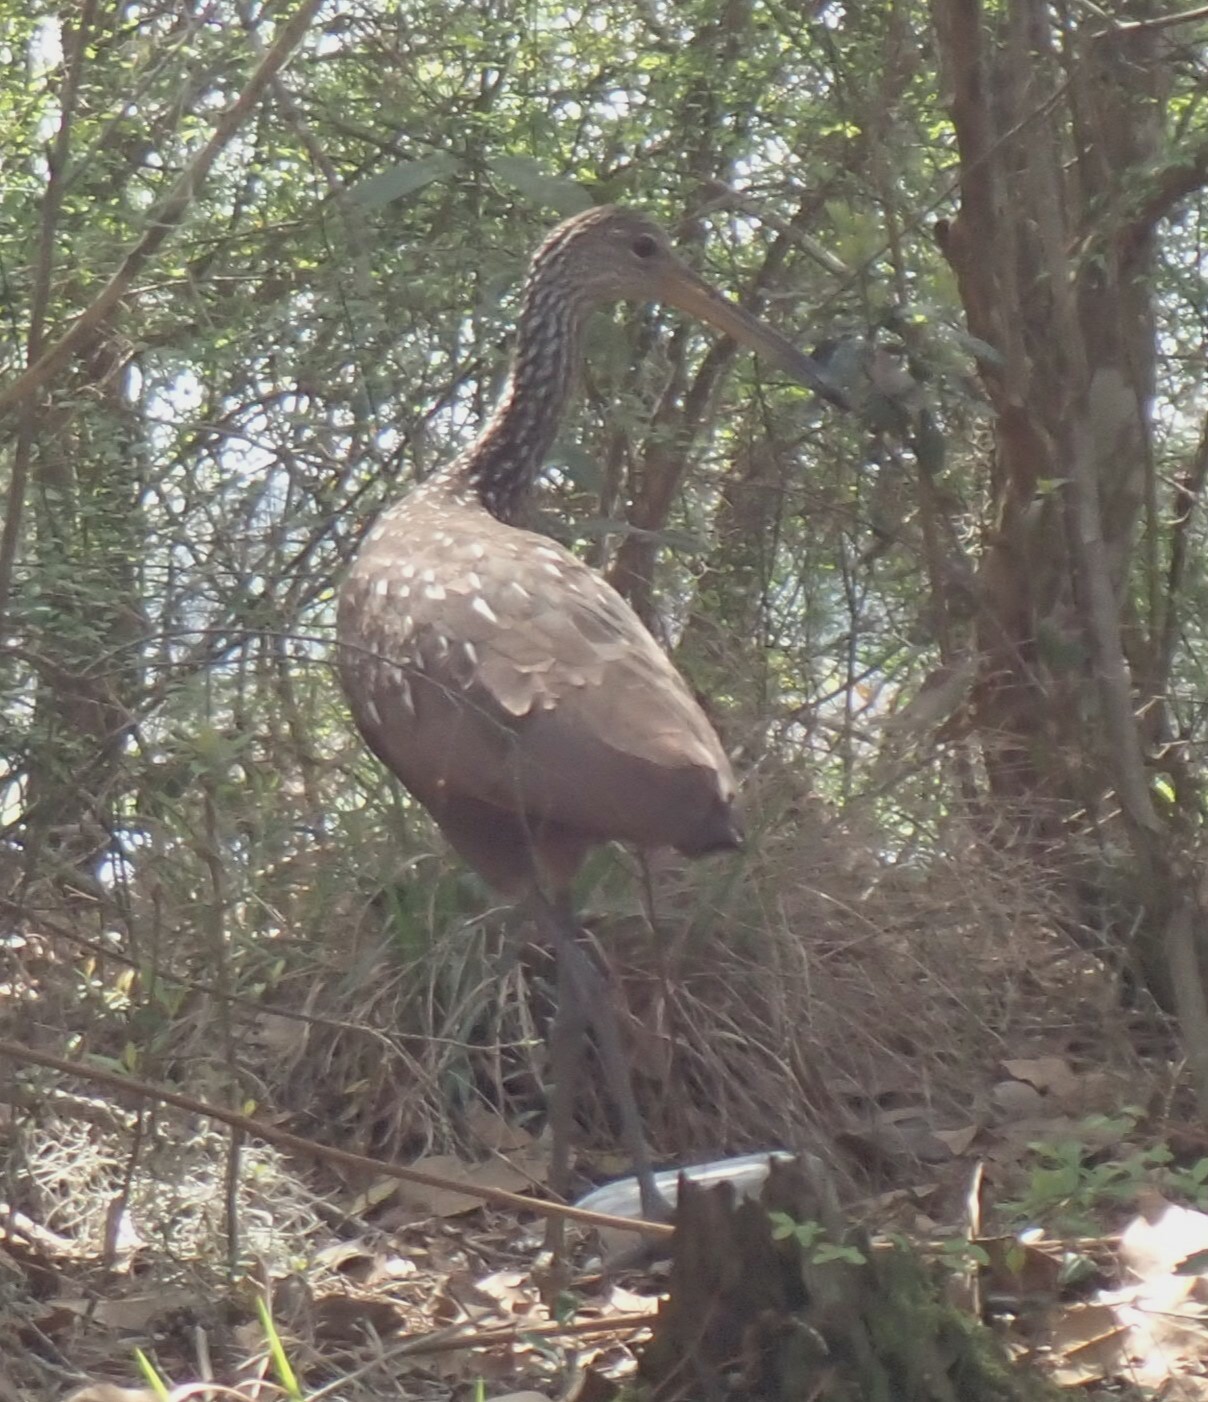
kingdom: Animalia
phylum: Chordata
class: Aves
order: Gruiformes
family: Aramidae
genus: Aramus
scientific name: Aramus guarauna
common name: Limpkin
